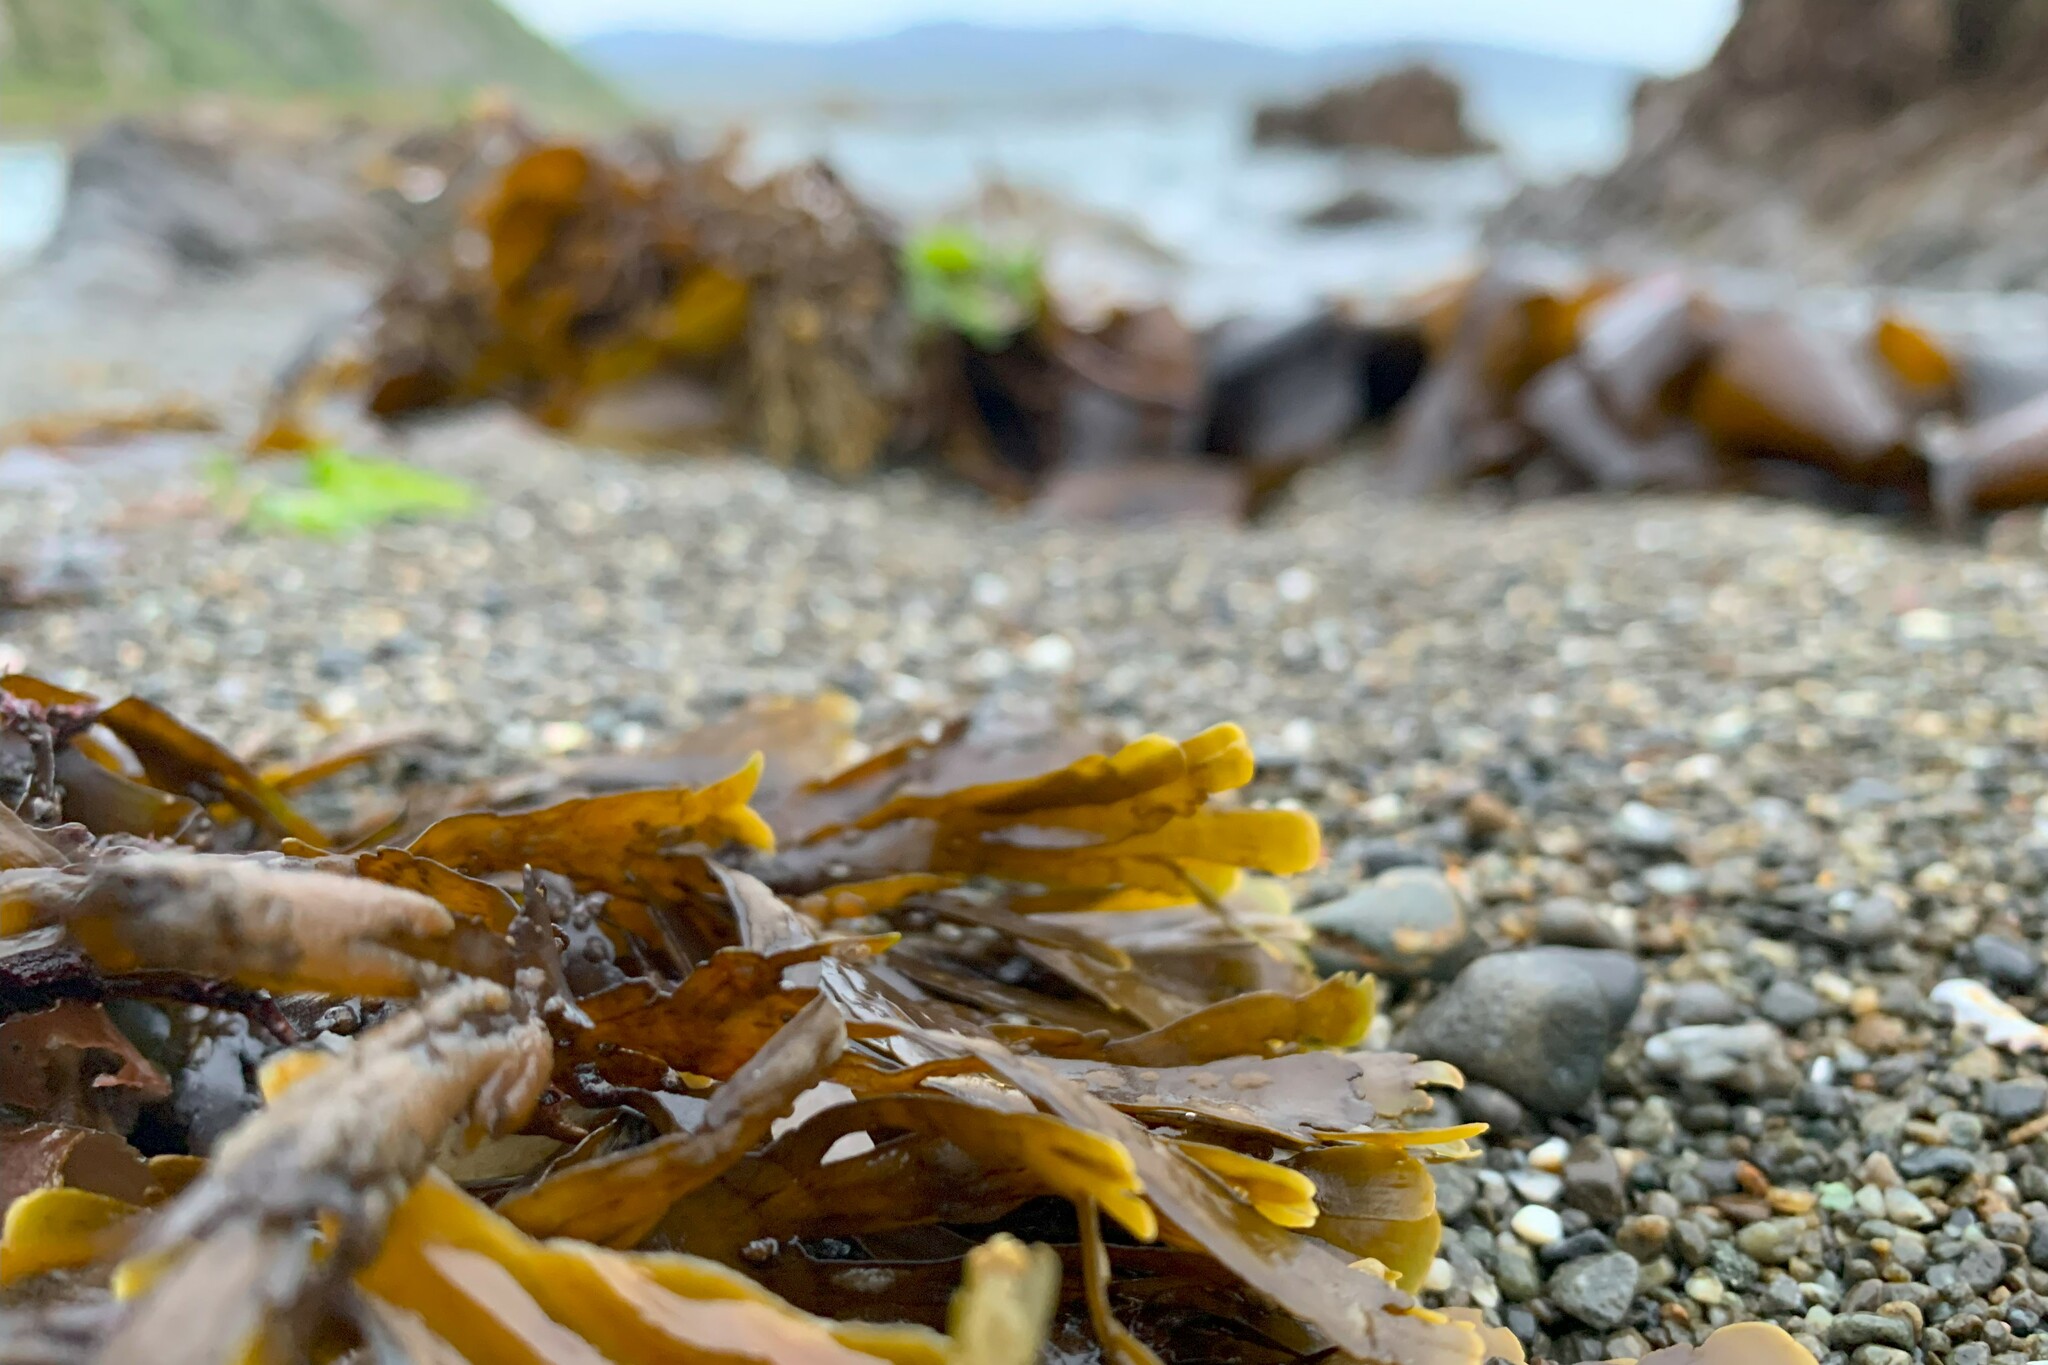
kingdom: Chromista
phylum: Ochrophyta
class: Phaeophyceae
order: Dictyotales
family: Dictyotaceae
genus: Zonaria
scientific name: Zonaria turneriana
